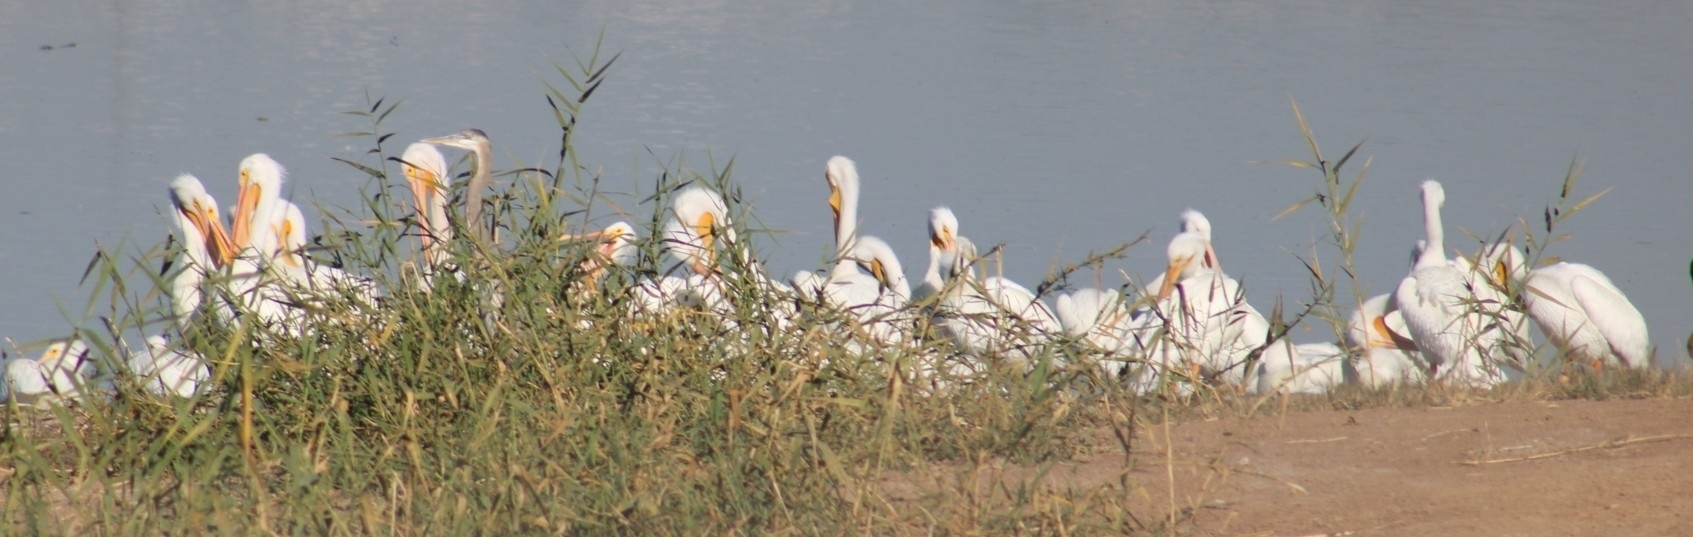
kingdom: Animalia
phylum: Chordata
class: Aves
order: Pelecaniformes
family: Pelecanidae
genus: Pelecanus
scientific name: Pelecanus erythrorhynchos
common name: American white pelican
